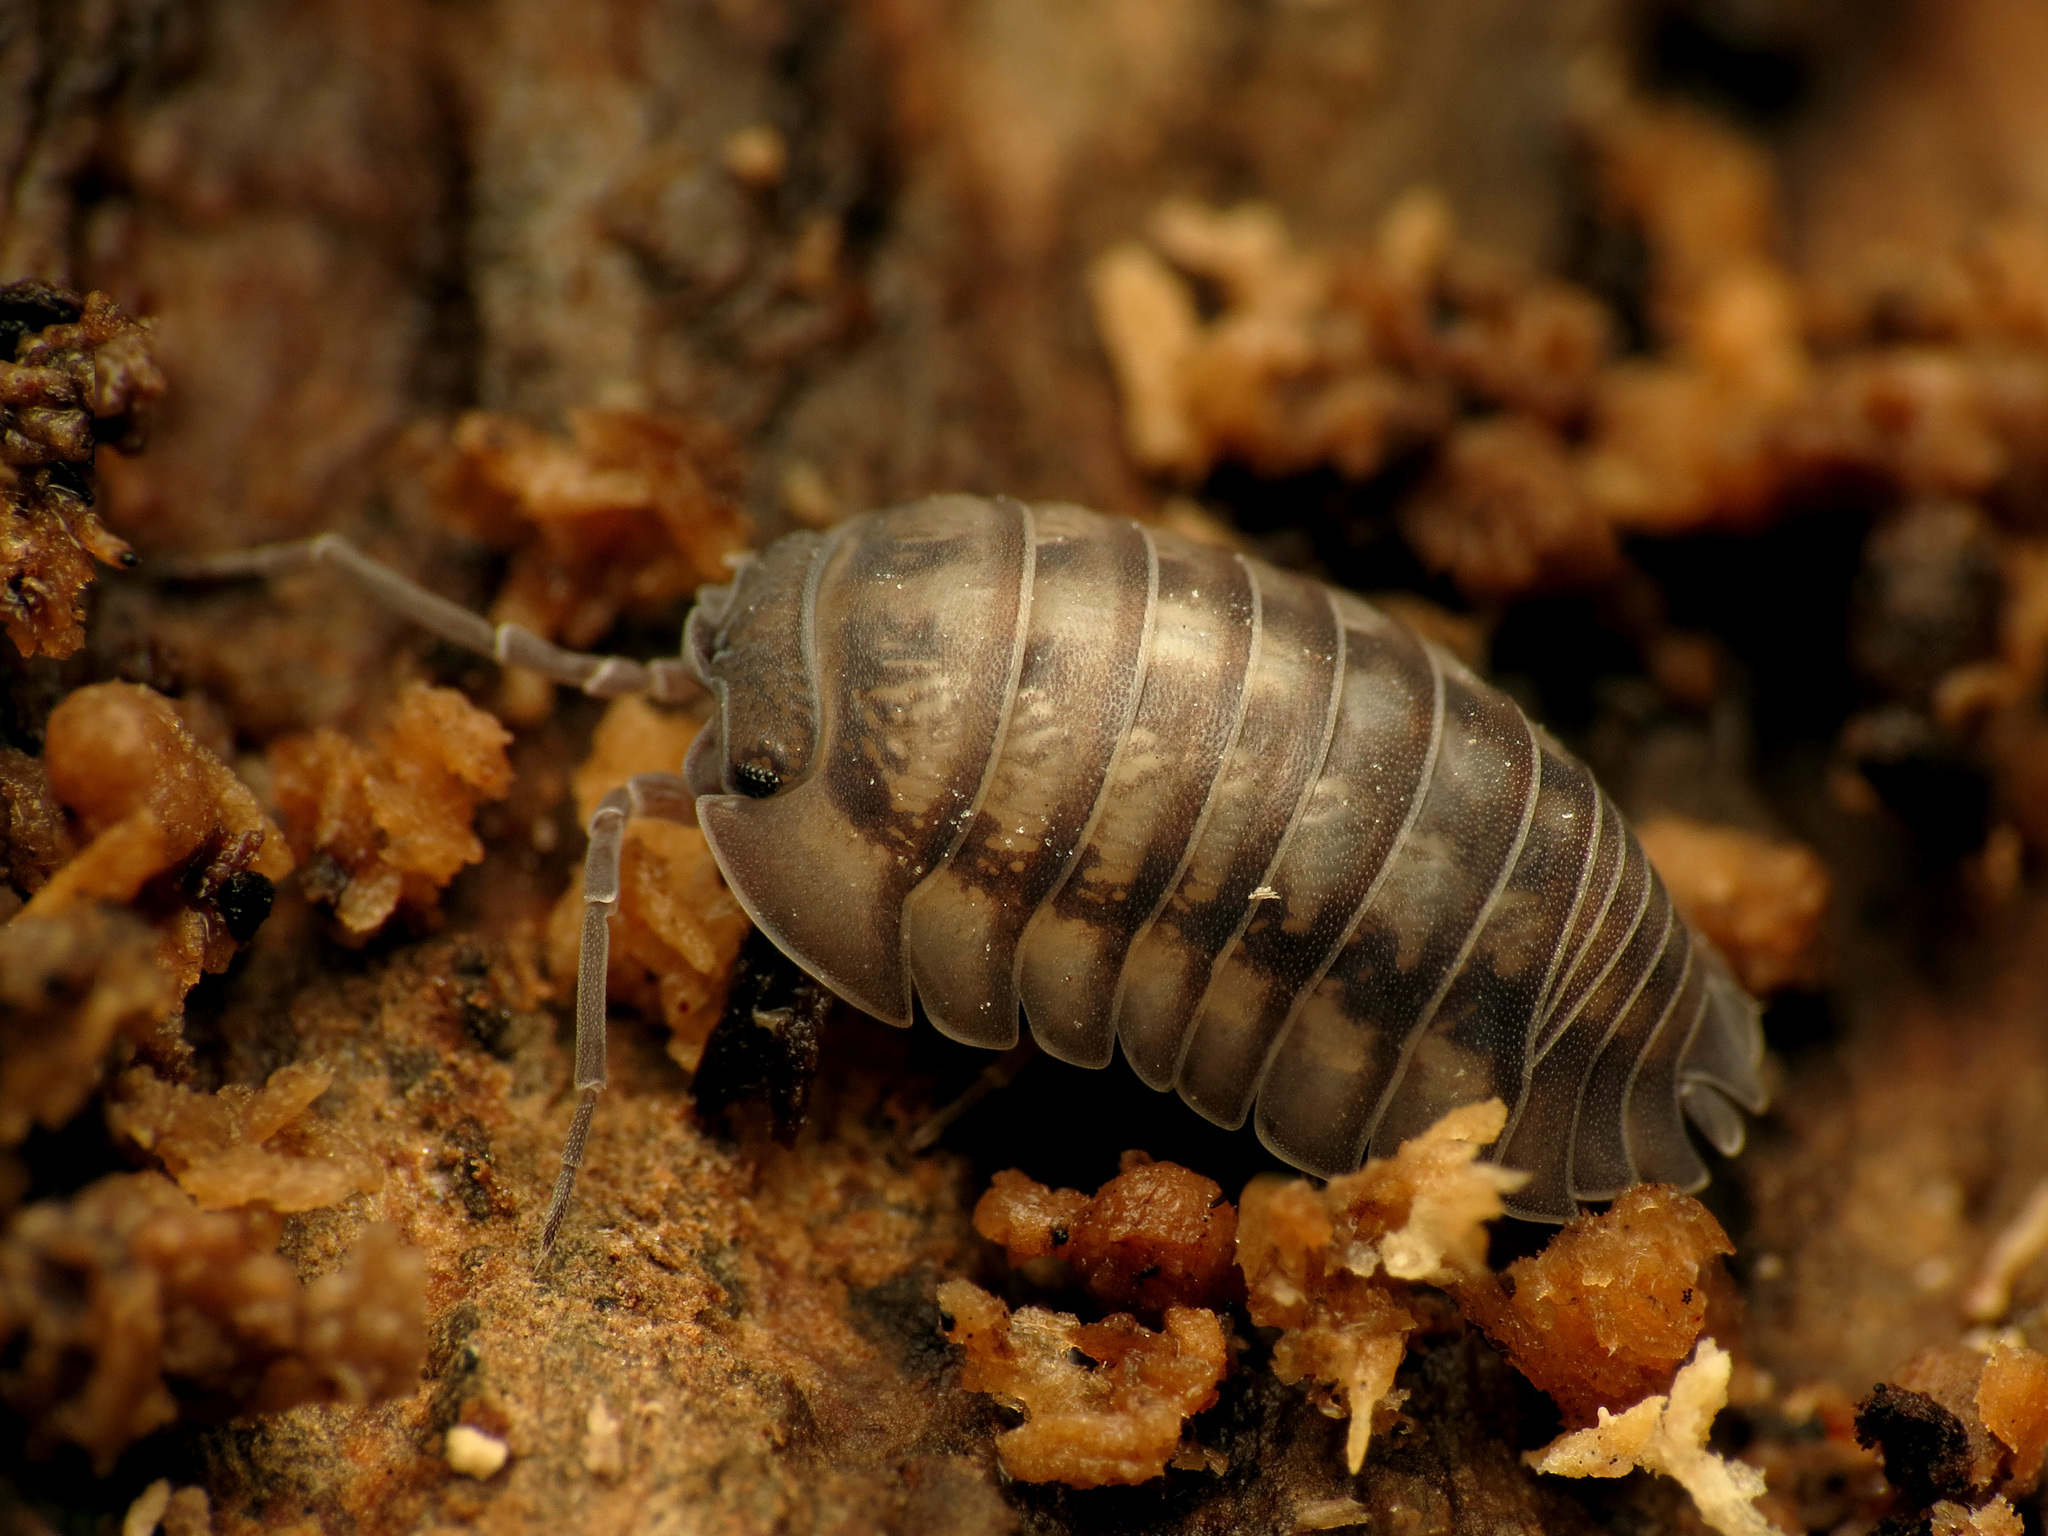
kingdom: Animalia
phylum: Arthropoda
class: Malacostraca
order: Isopoda
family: Armadillidiidae
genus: Armadillidium
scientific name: Armadillidium nasatum
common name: Isopod
